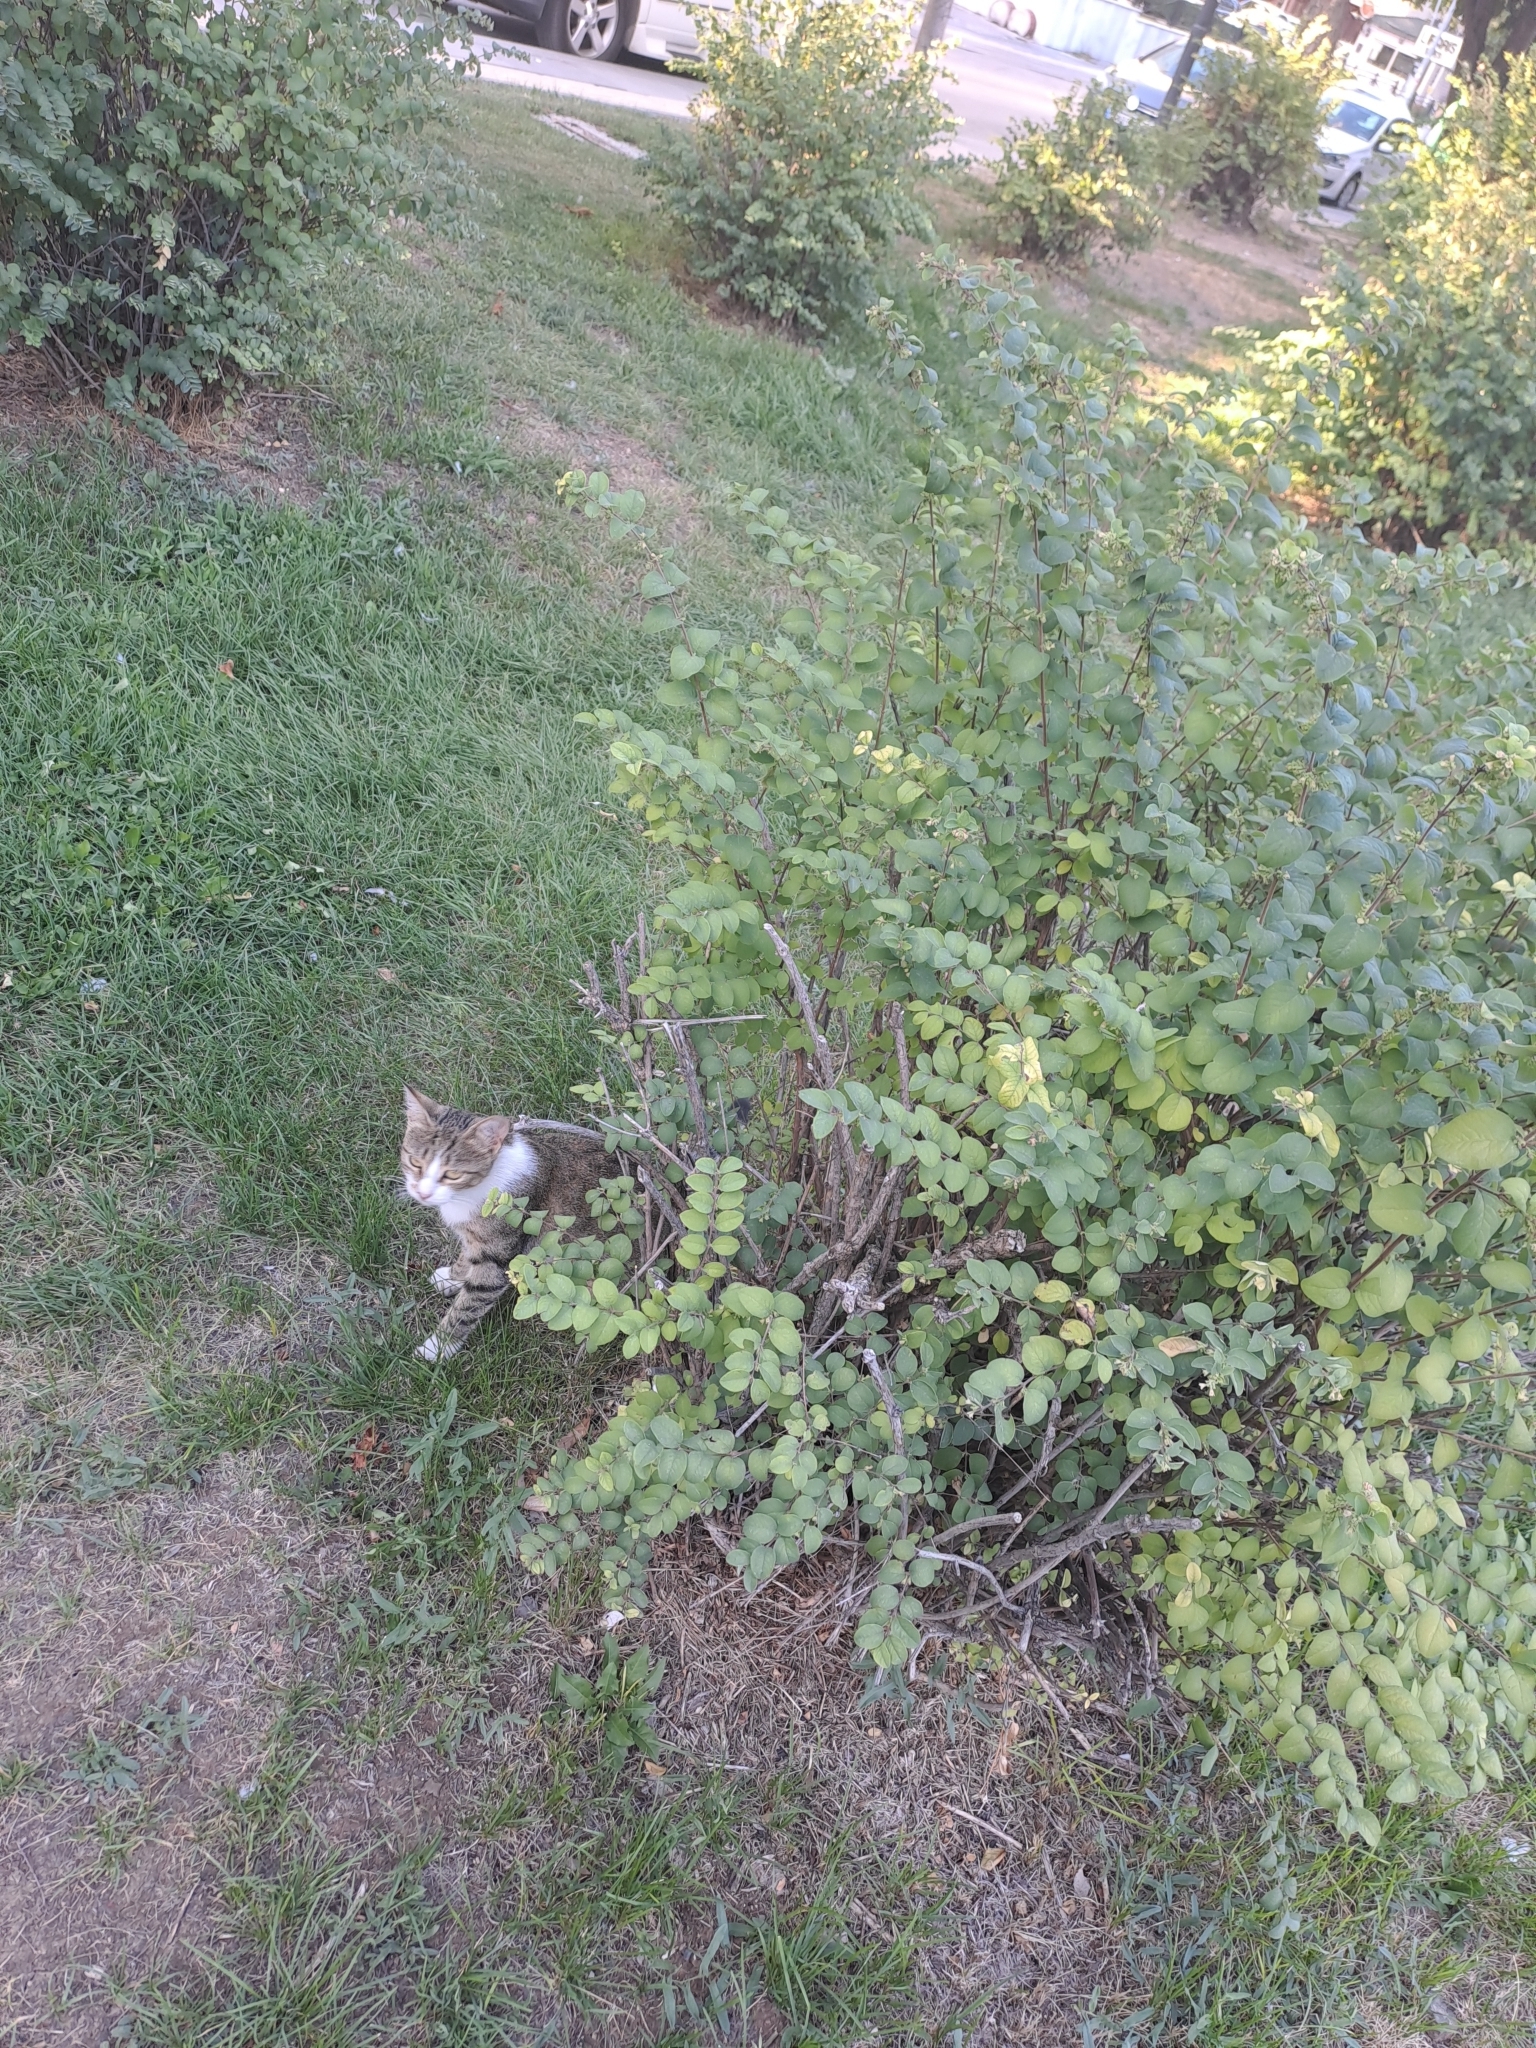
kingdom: Animalia
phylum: Chordata
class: Mammalia
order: Carnivora
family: Felidae
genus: Felis
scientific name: Felis catus
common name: Domestic cat
